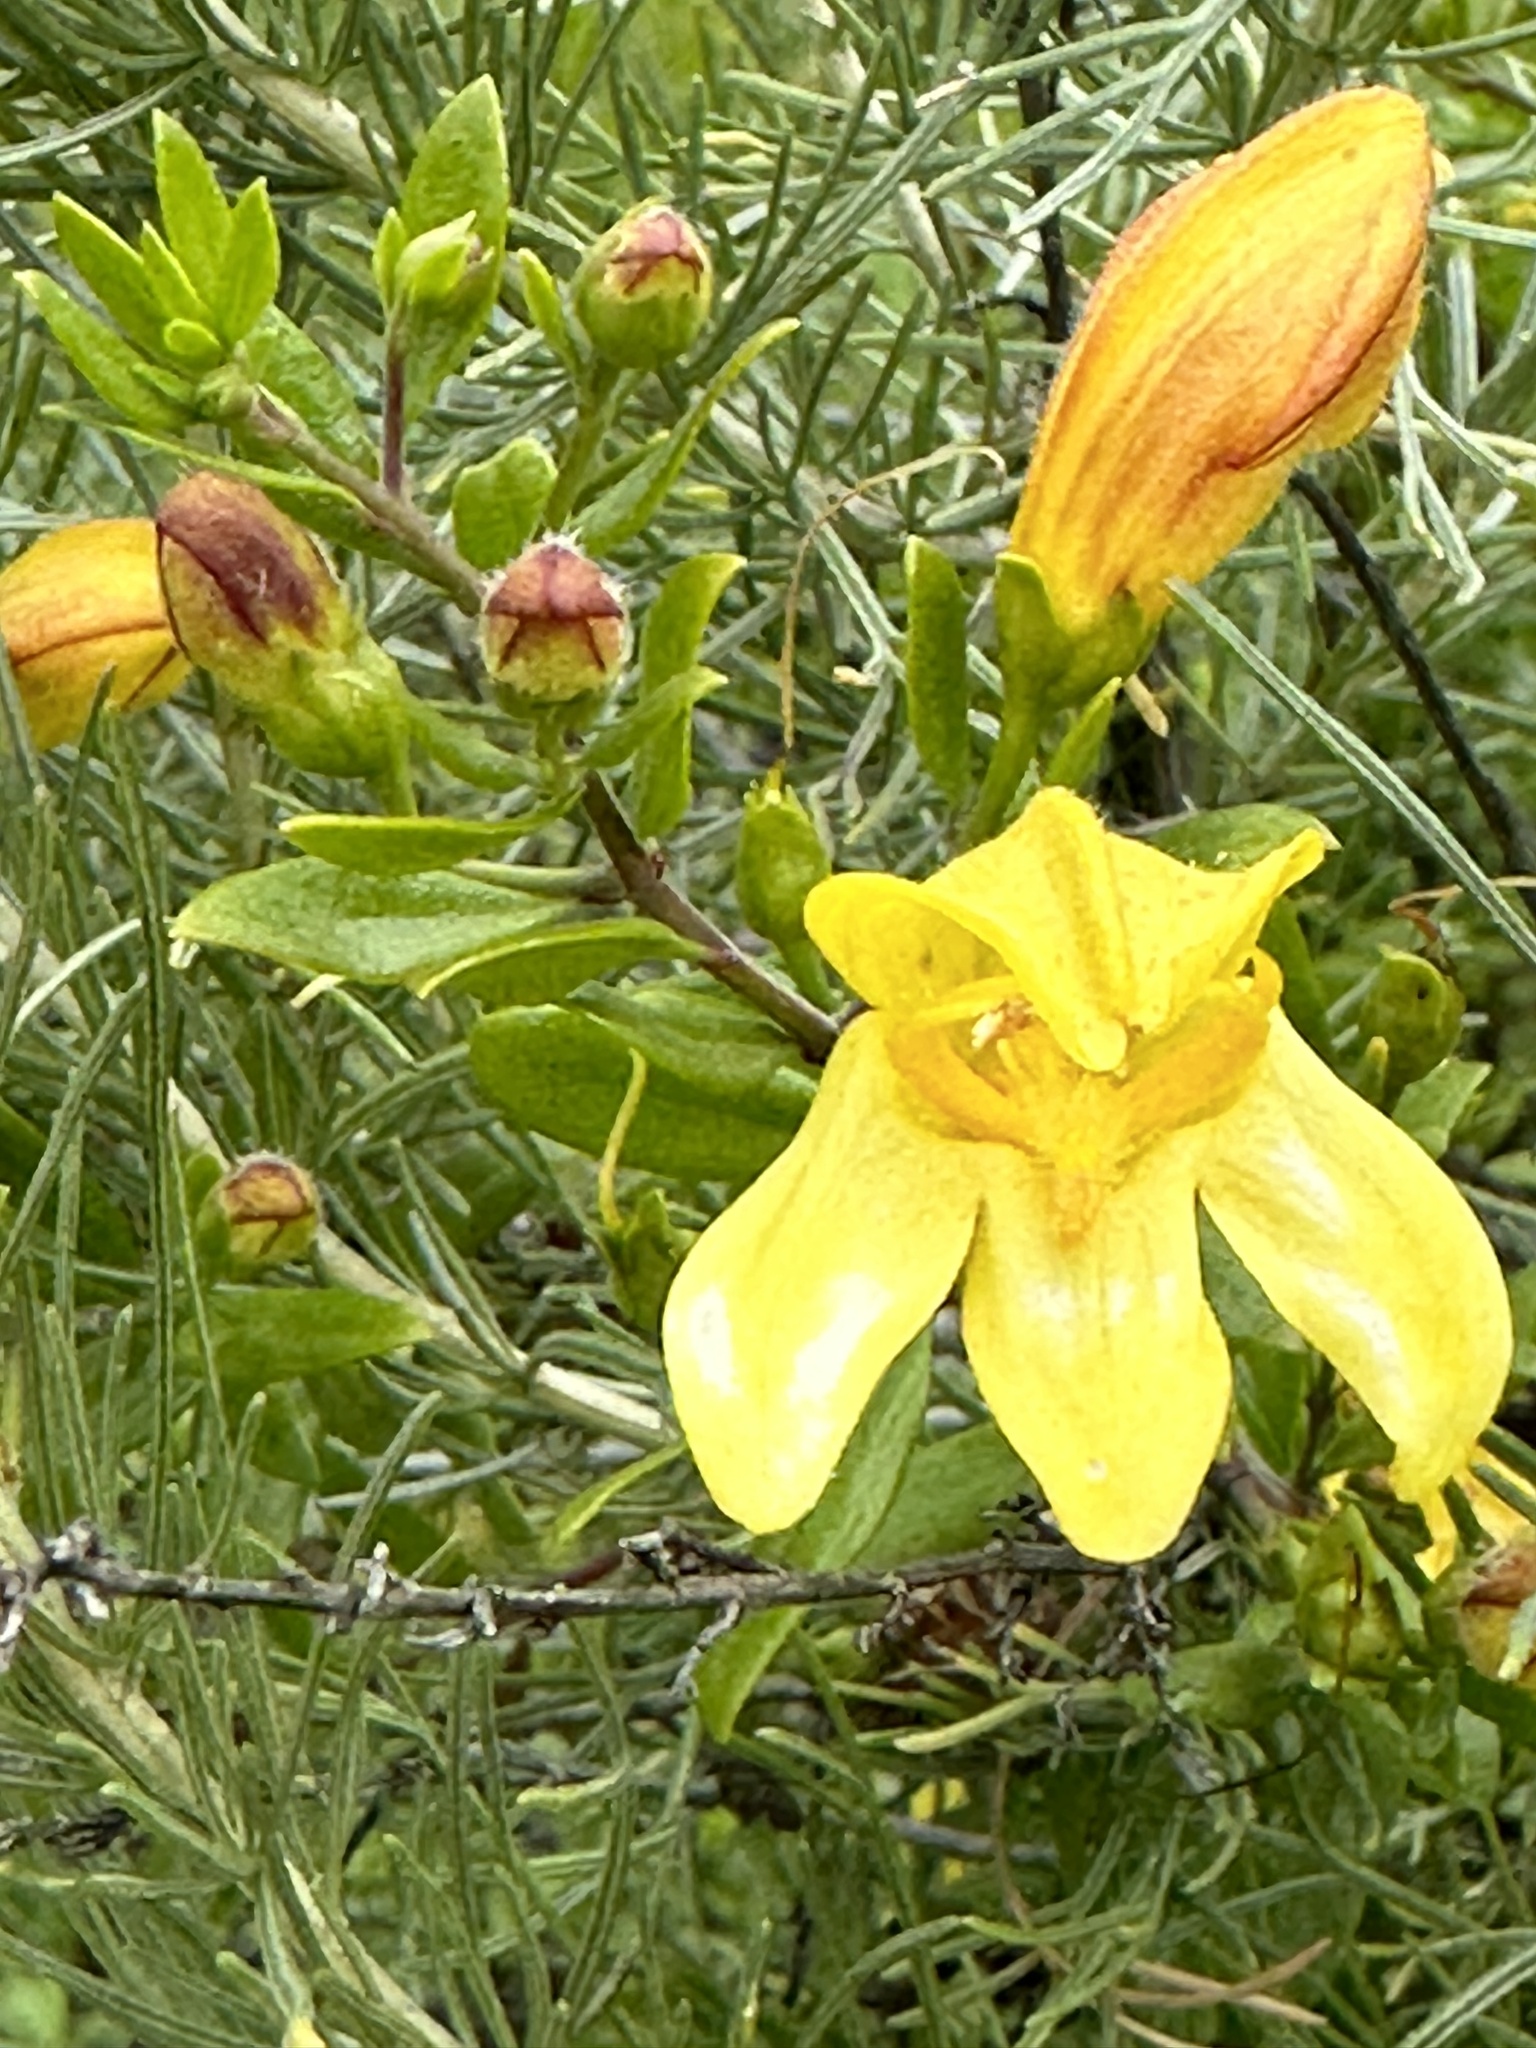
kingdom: Plantae
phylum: Tracheophyta
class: Magnoliopsida
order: Lamiales
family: Plantaginaceae
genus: Keckiella
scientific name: Keckiella antirrhinoides
